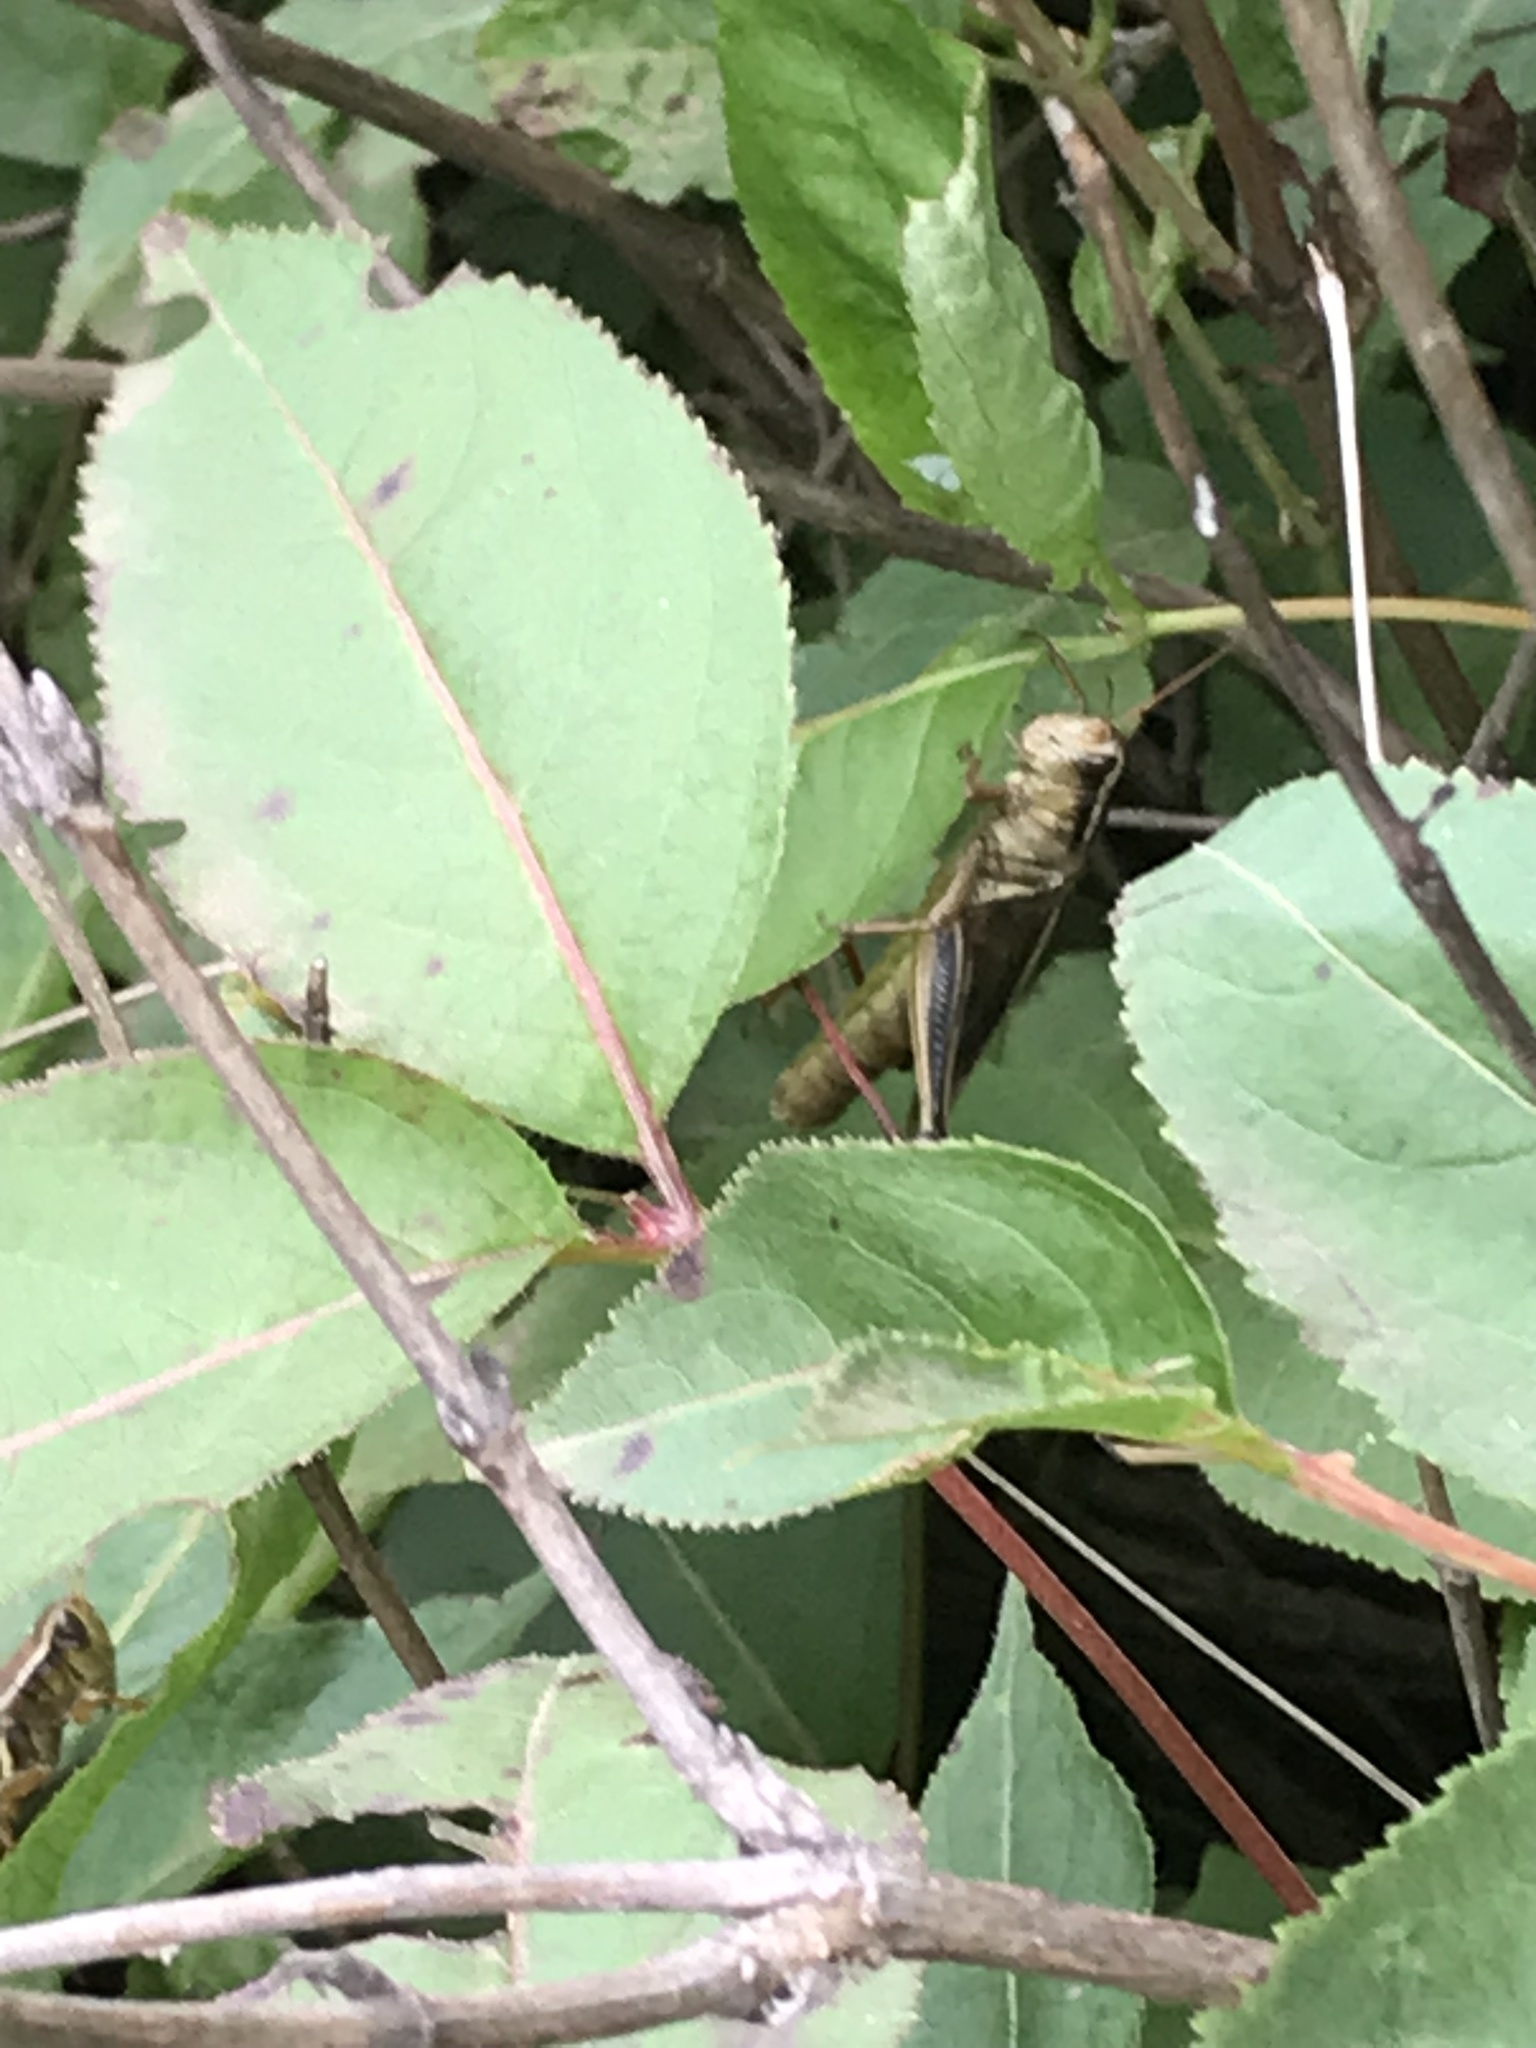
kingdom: Animalia
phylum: Arthropoda
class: Insecta
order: Orthoptera
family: Acrididae
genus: Melanoplus
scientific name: Melanoplus bivittatus
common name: Two-striped grasshopper
